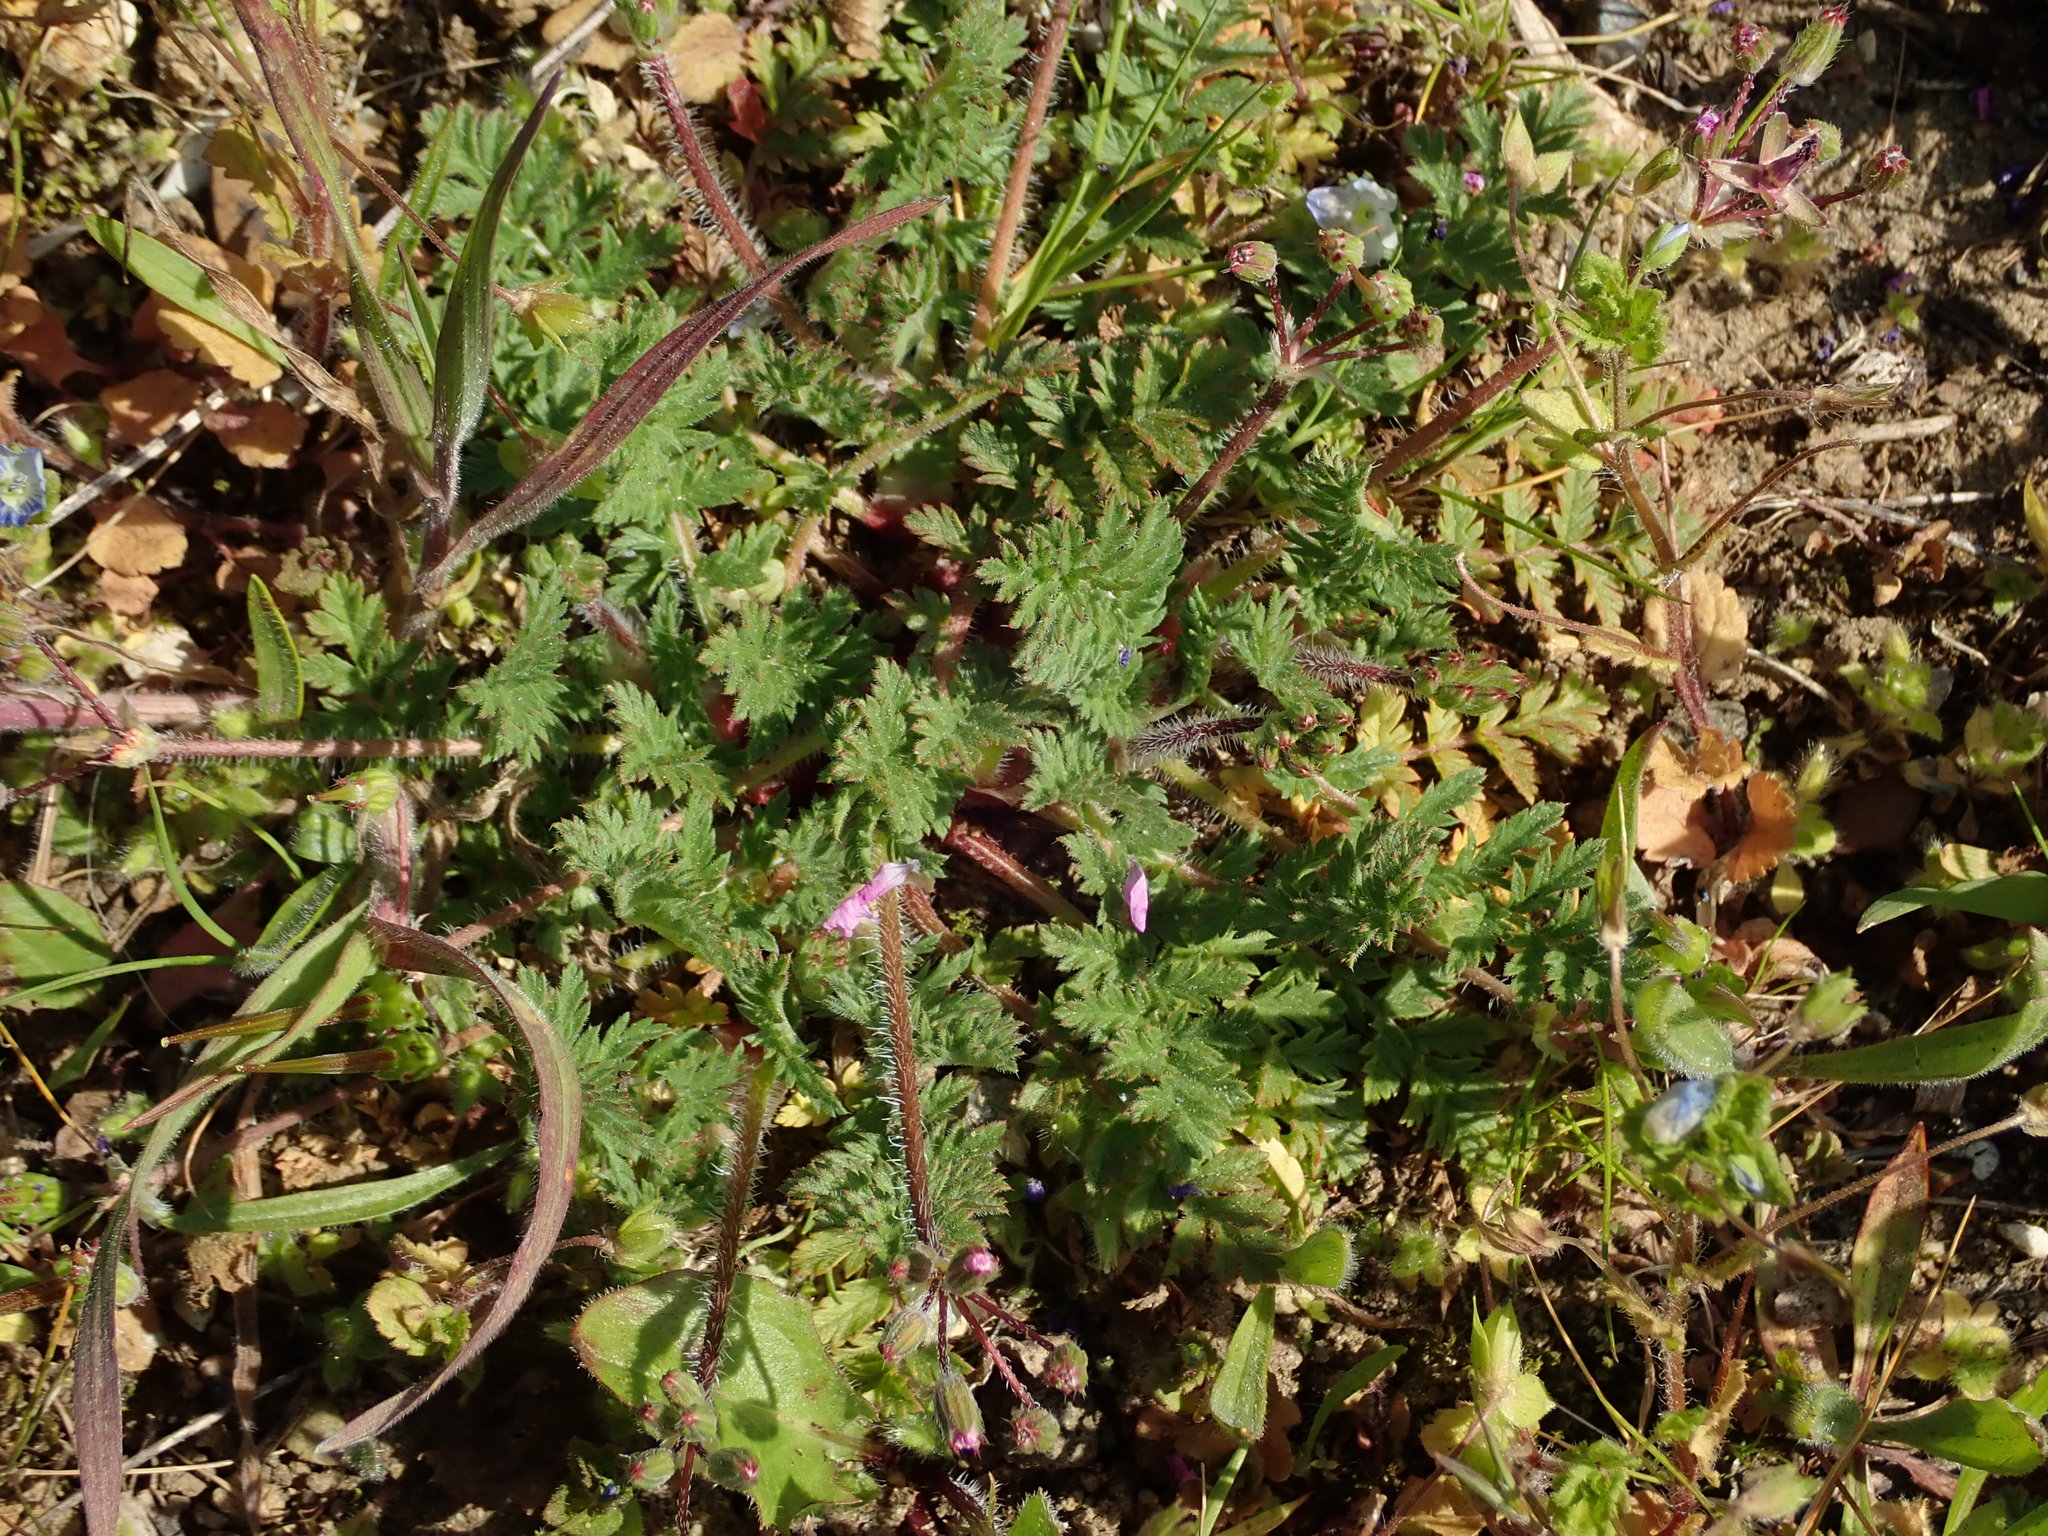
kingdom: Plantae
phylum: Tracheophyta
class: Magnoliopsida
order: Geraniales
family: Geraniaceae
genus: Erodium
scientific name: Erodium cicutarium
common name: Common stork's-bill
